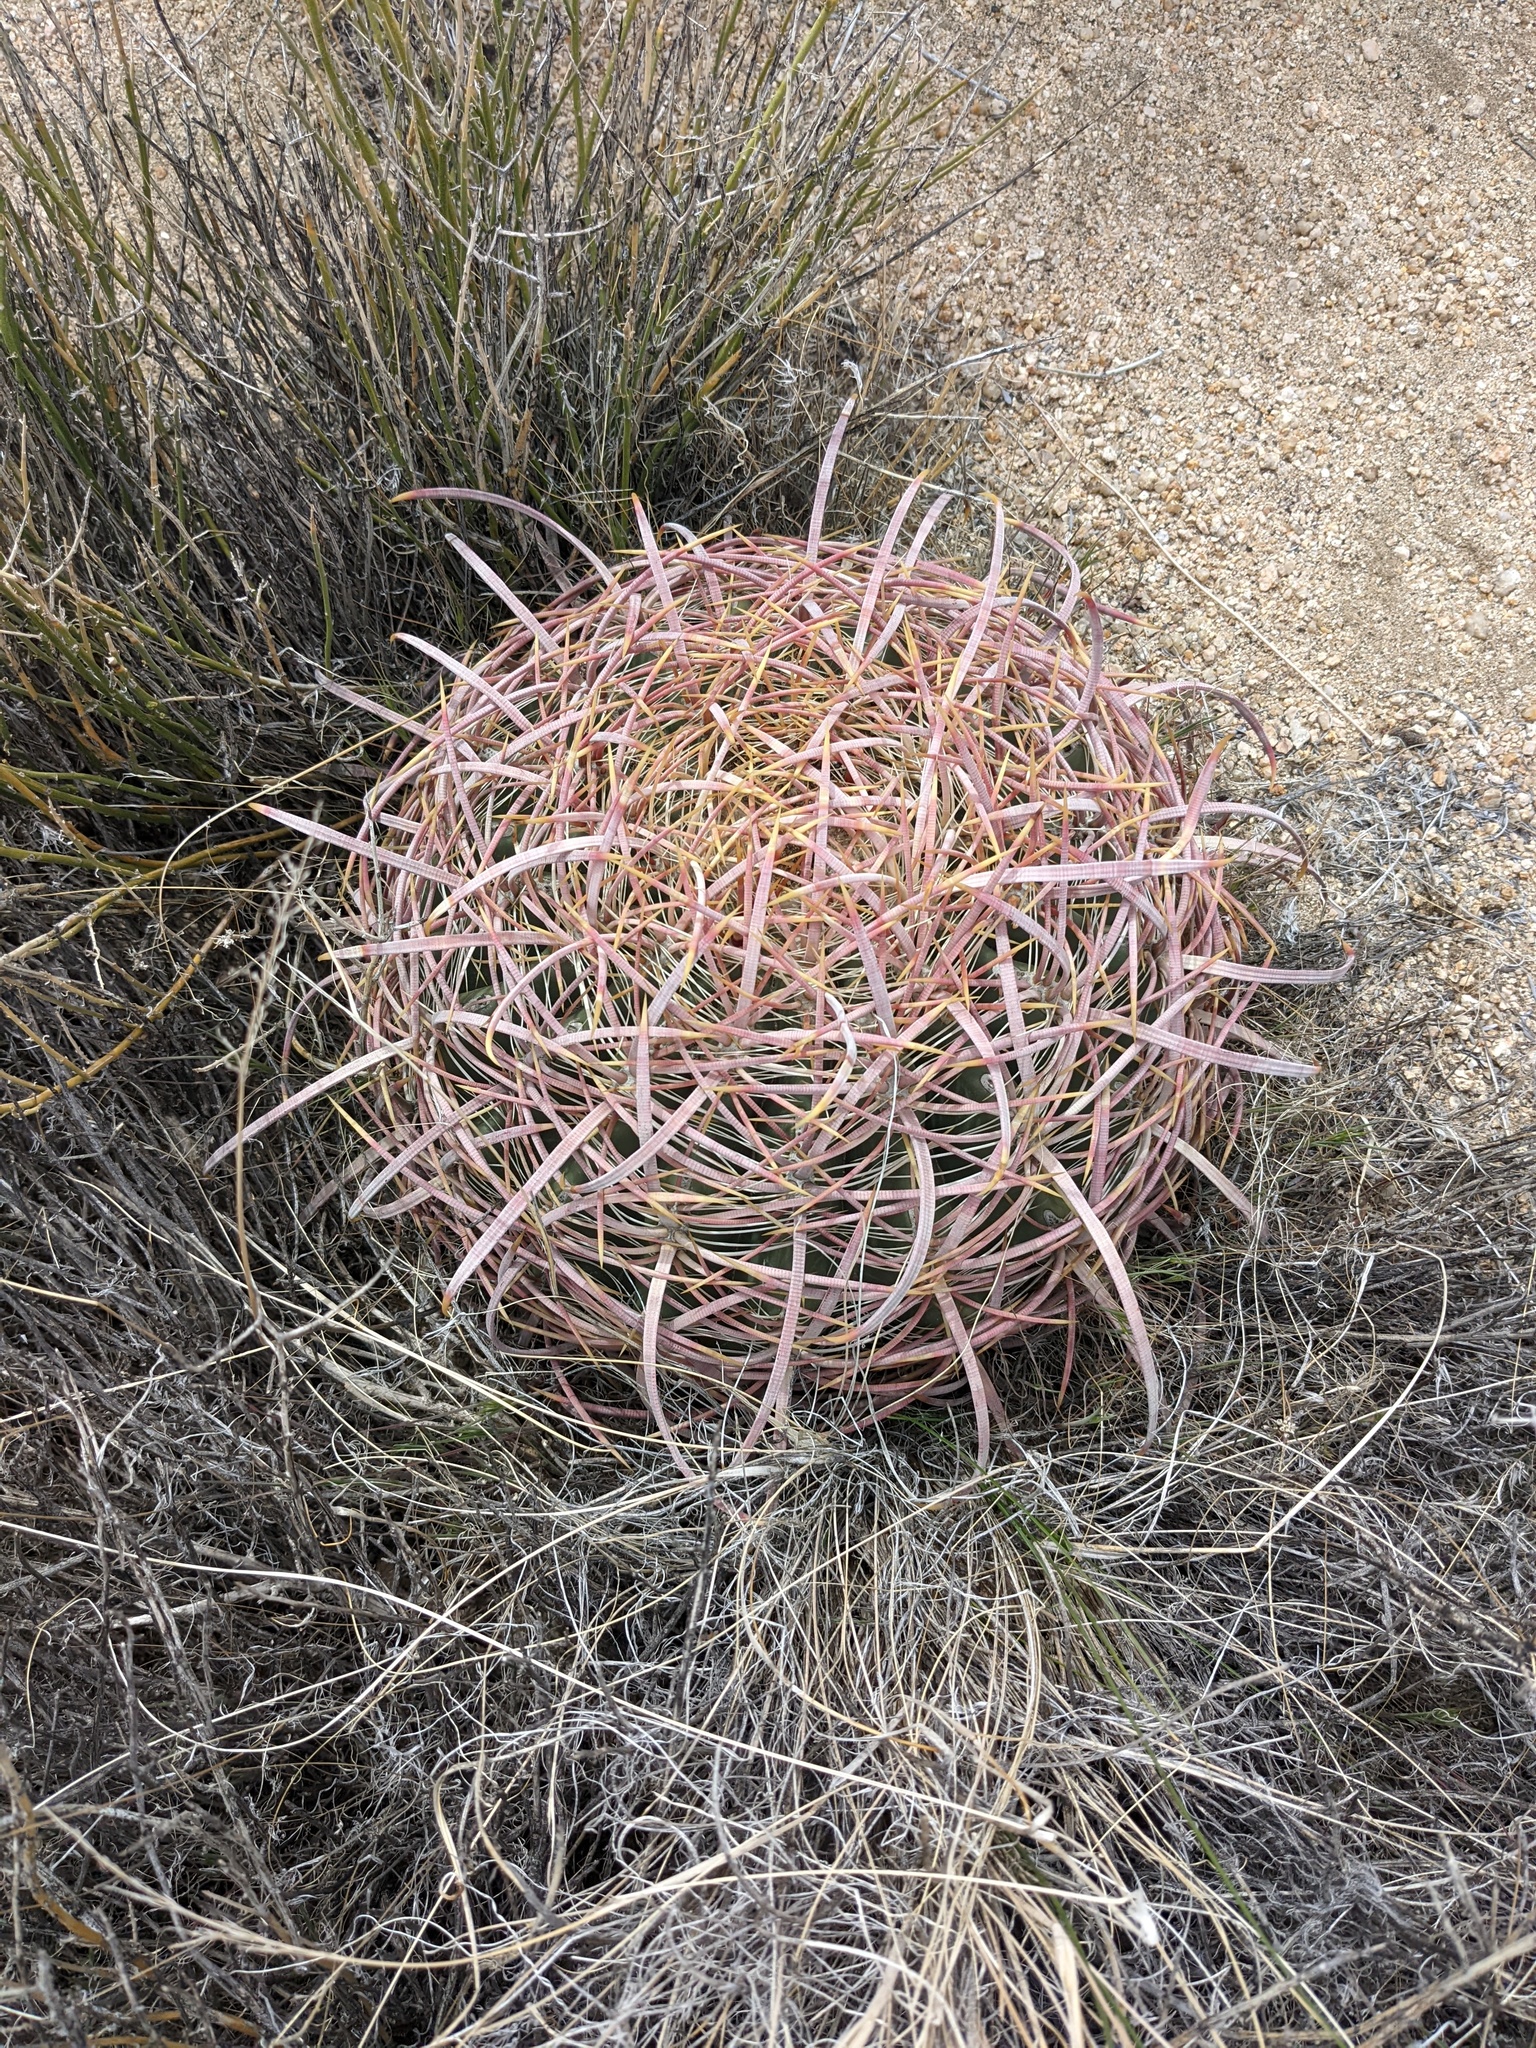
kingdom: Plantae
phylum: Tracheophyta
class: Magnoliopsida
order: Caryophyllales
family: Cactaceae
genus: Ferocactus
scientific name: Ferocactus cylindraceus
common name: California barrel cactus
